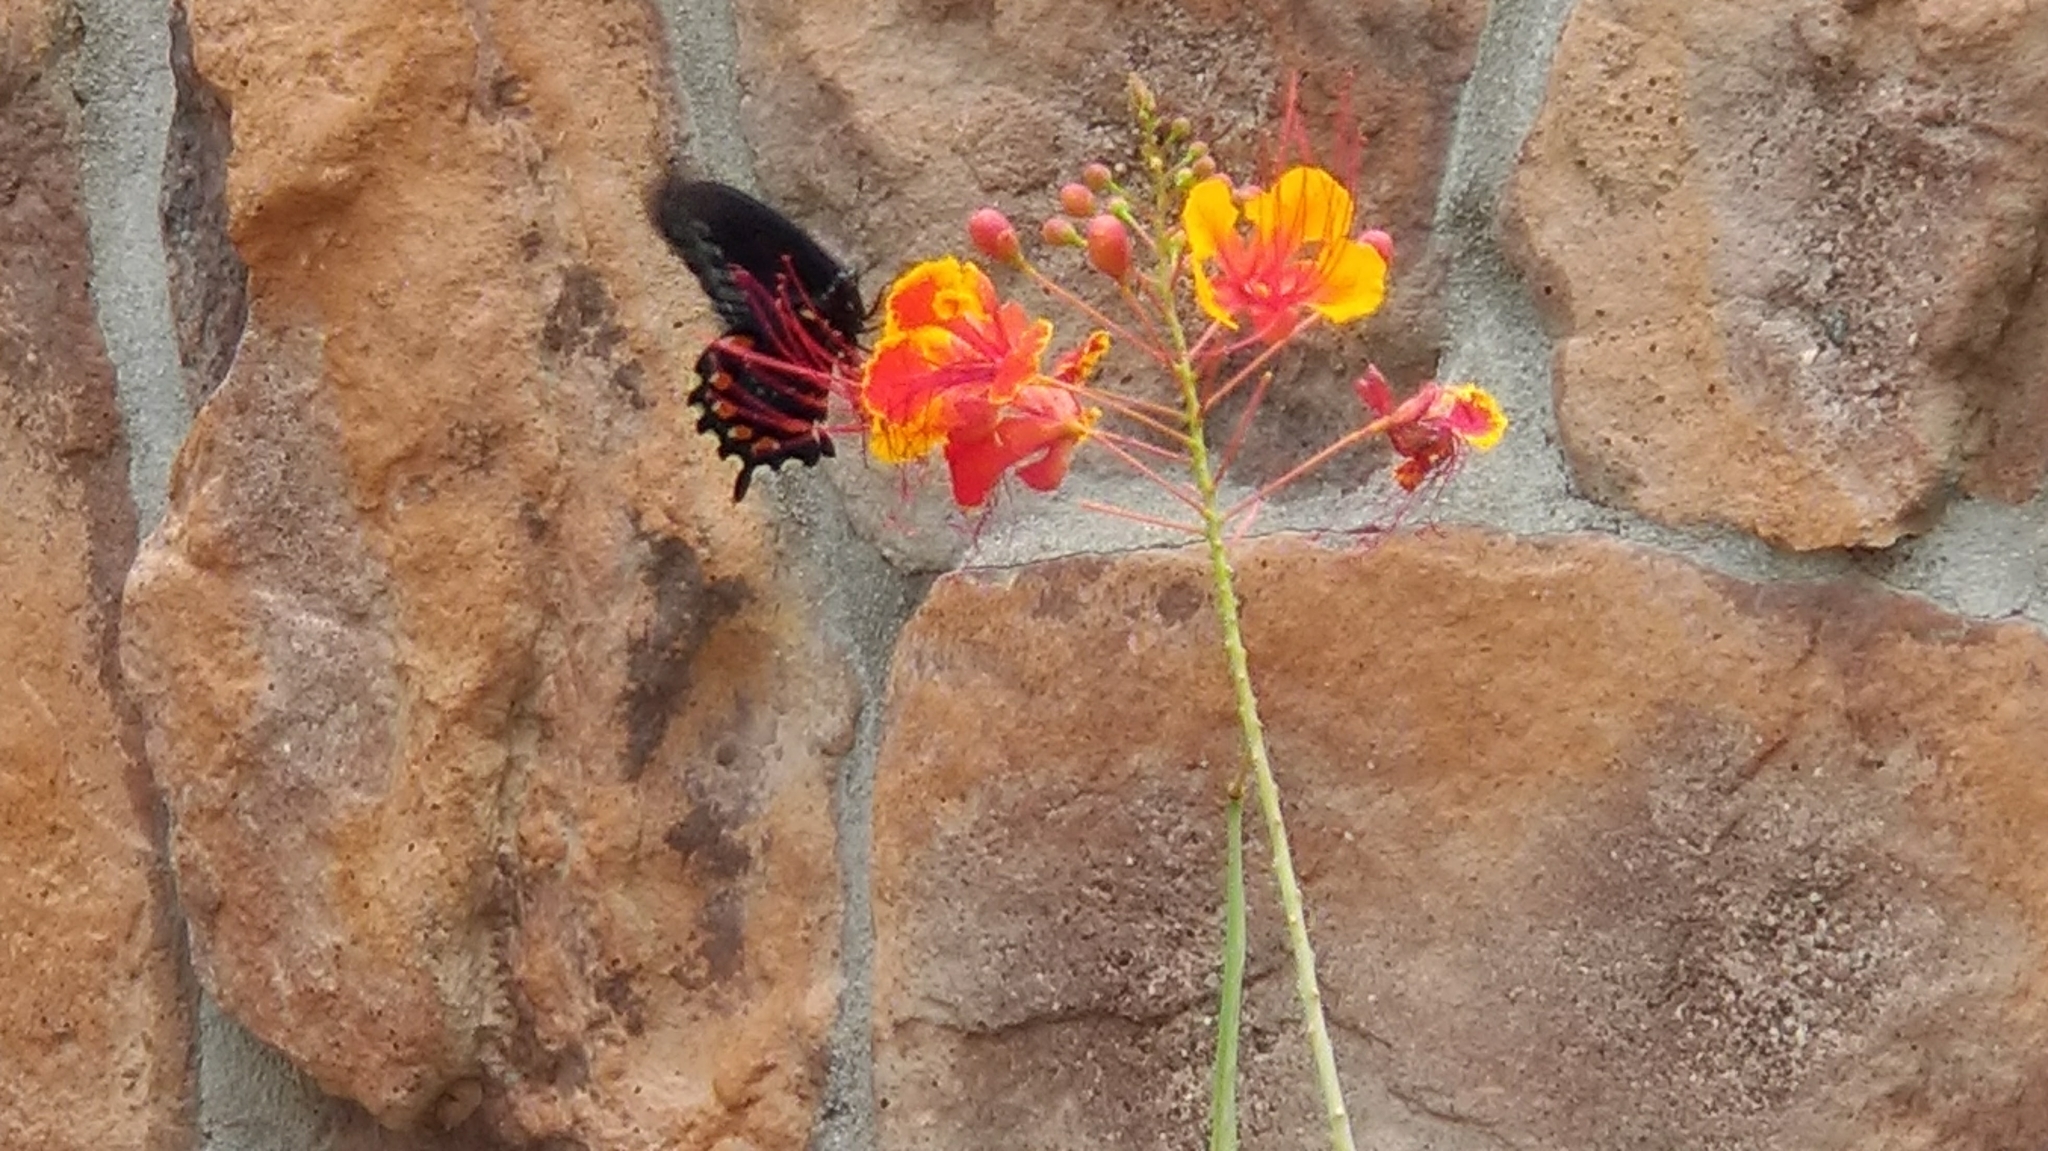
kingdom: Animalia
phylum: Arthropoda
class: Insecta
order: Lepidoptera
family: Papilionidae
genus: Battus
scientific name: Battus philenor
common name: Pipevine swallowtail
